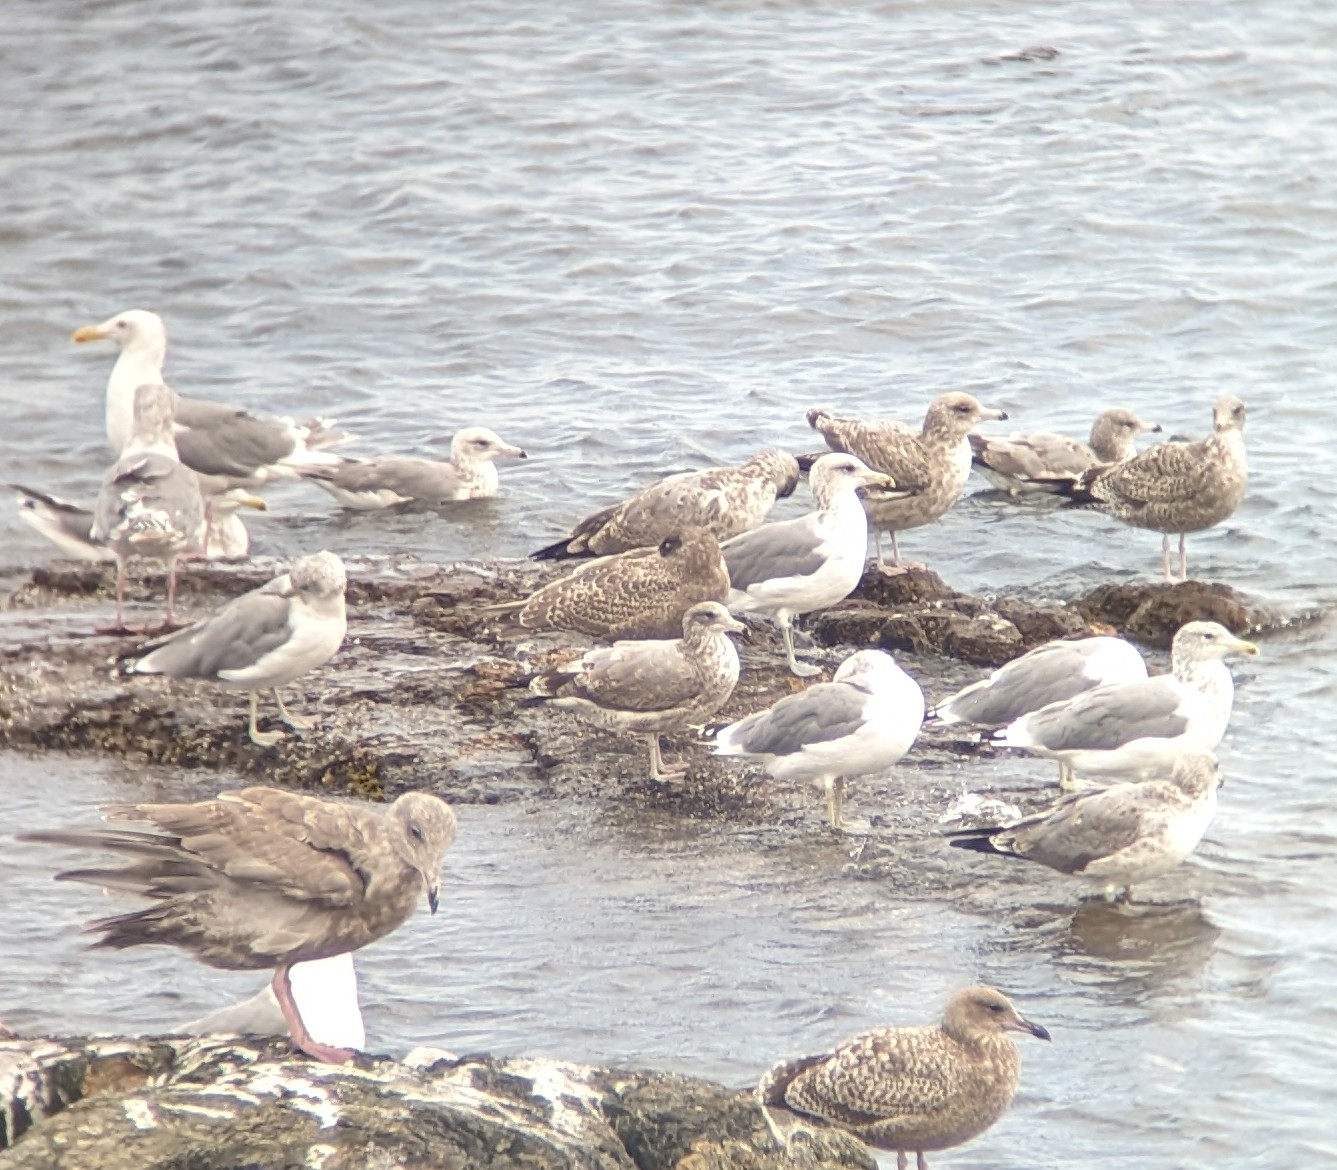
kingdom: Animalia
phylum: Chordata
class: Aves
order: Charadriiformes
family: Laridae
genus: Larus
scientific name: Larus californicus
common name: California gull
